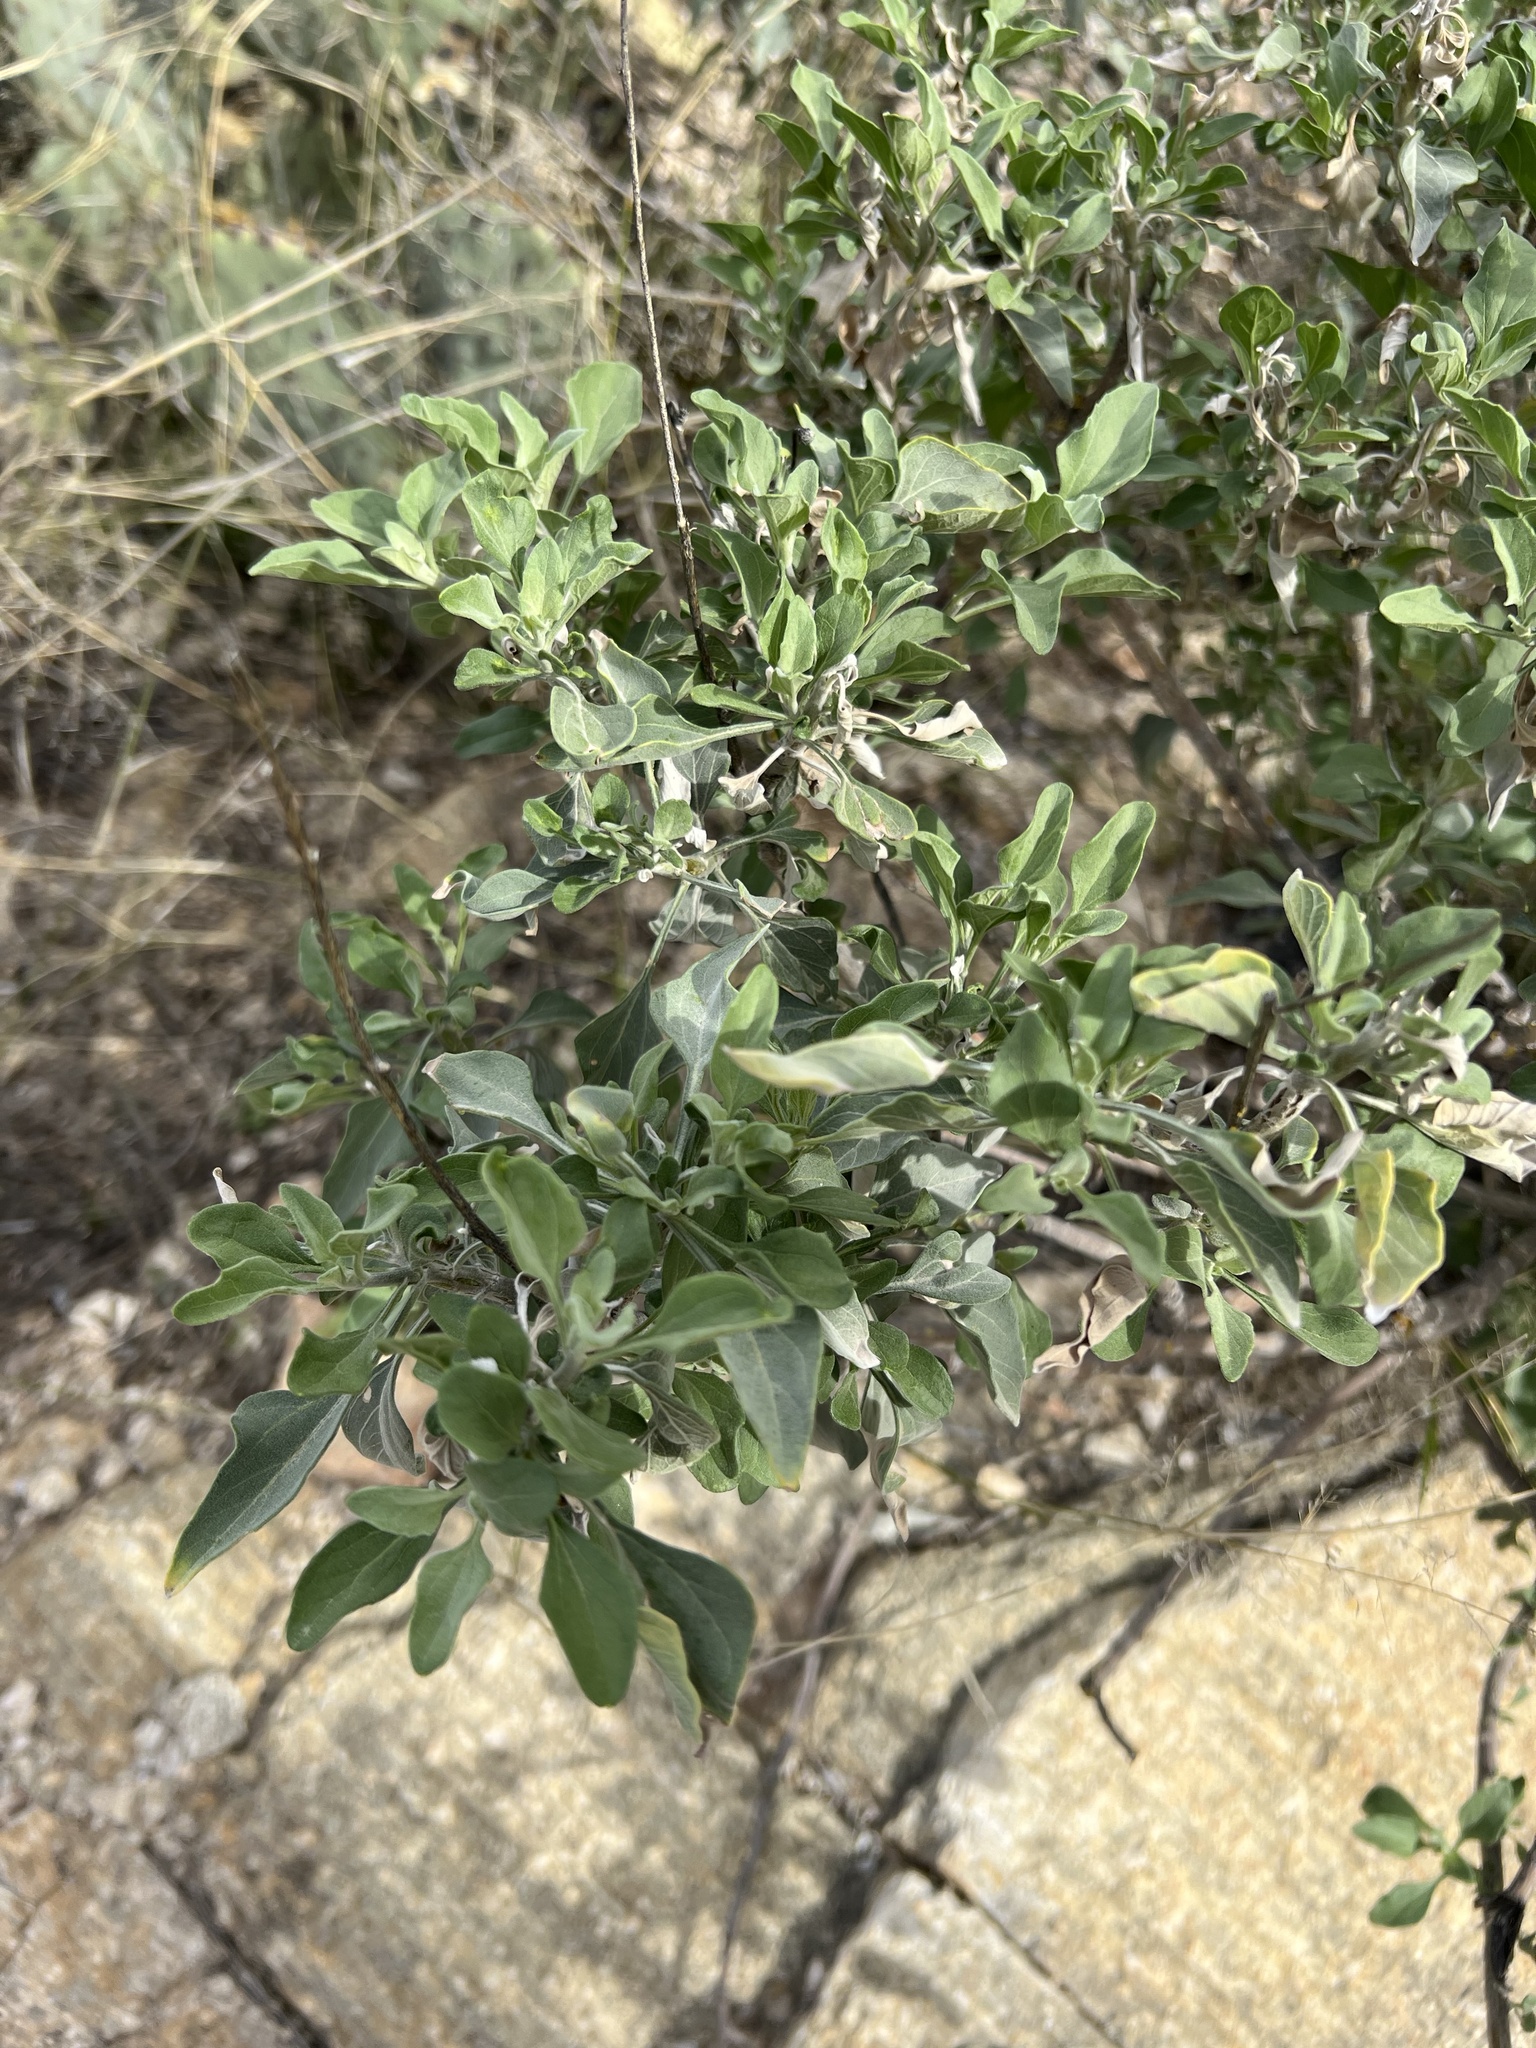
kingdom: Plantae
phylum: Tracheophyta
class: Magnoliopsida
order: Asterales
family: Asteraceae
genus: Encelia
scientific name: Encelia farinosa
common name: Brittlebush
